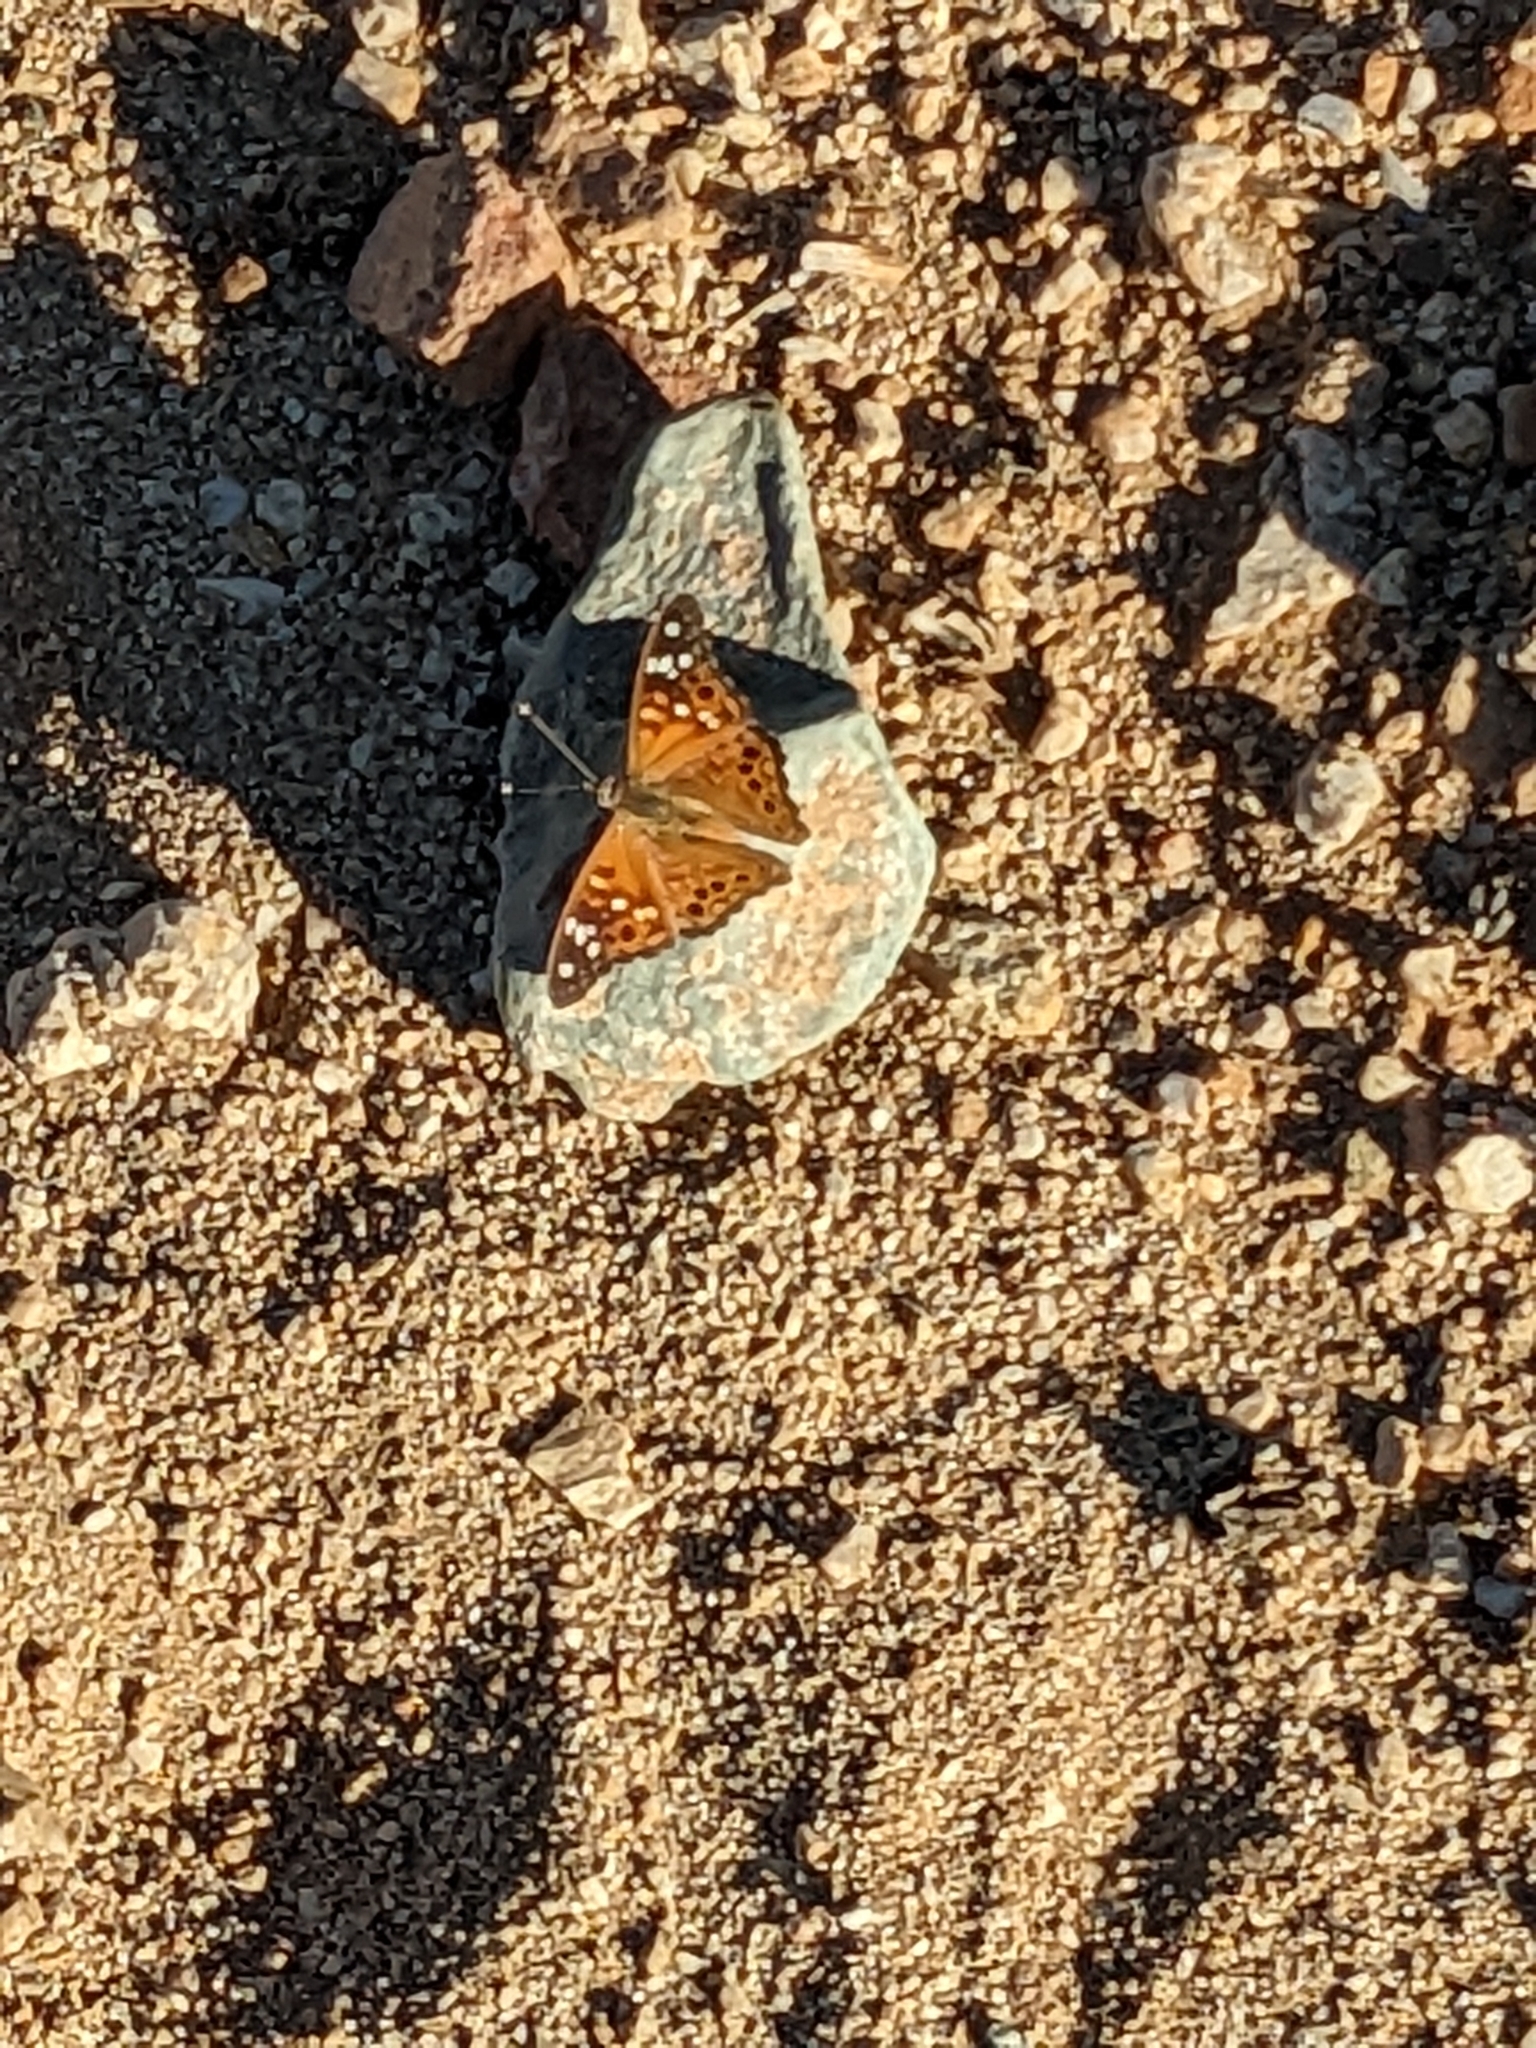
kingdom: Animalia
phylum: Arthropoda
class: Insecta
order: Lepidoptera
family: Nymphalidae
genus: Asterocampa
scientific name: Asterocampa leilia
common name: Empress leilia
